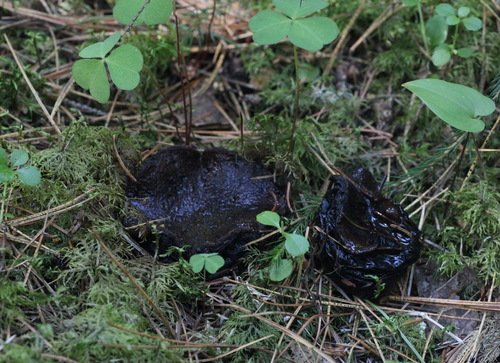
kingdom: Fungi
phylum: Ascomycota
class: Pezizomycetes
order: Pezizales
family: Sarcosomataceae
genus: Sarcosoma
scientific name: Sarcosoma globosum
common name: Charred-pancake cup
